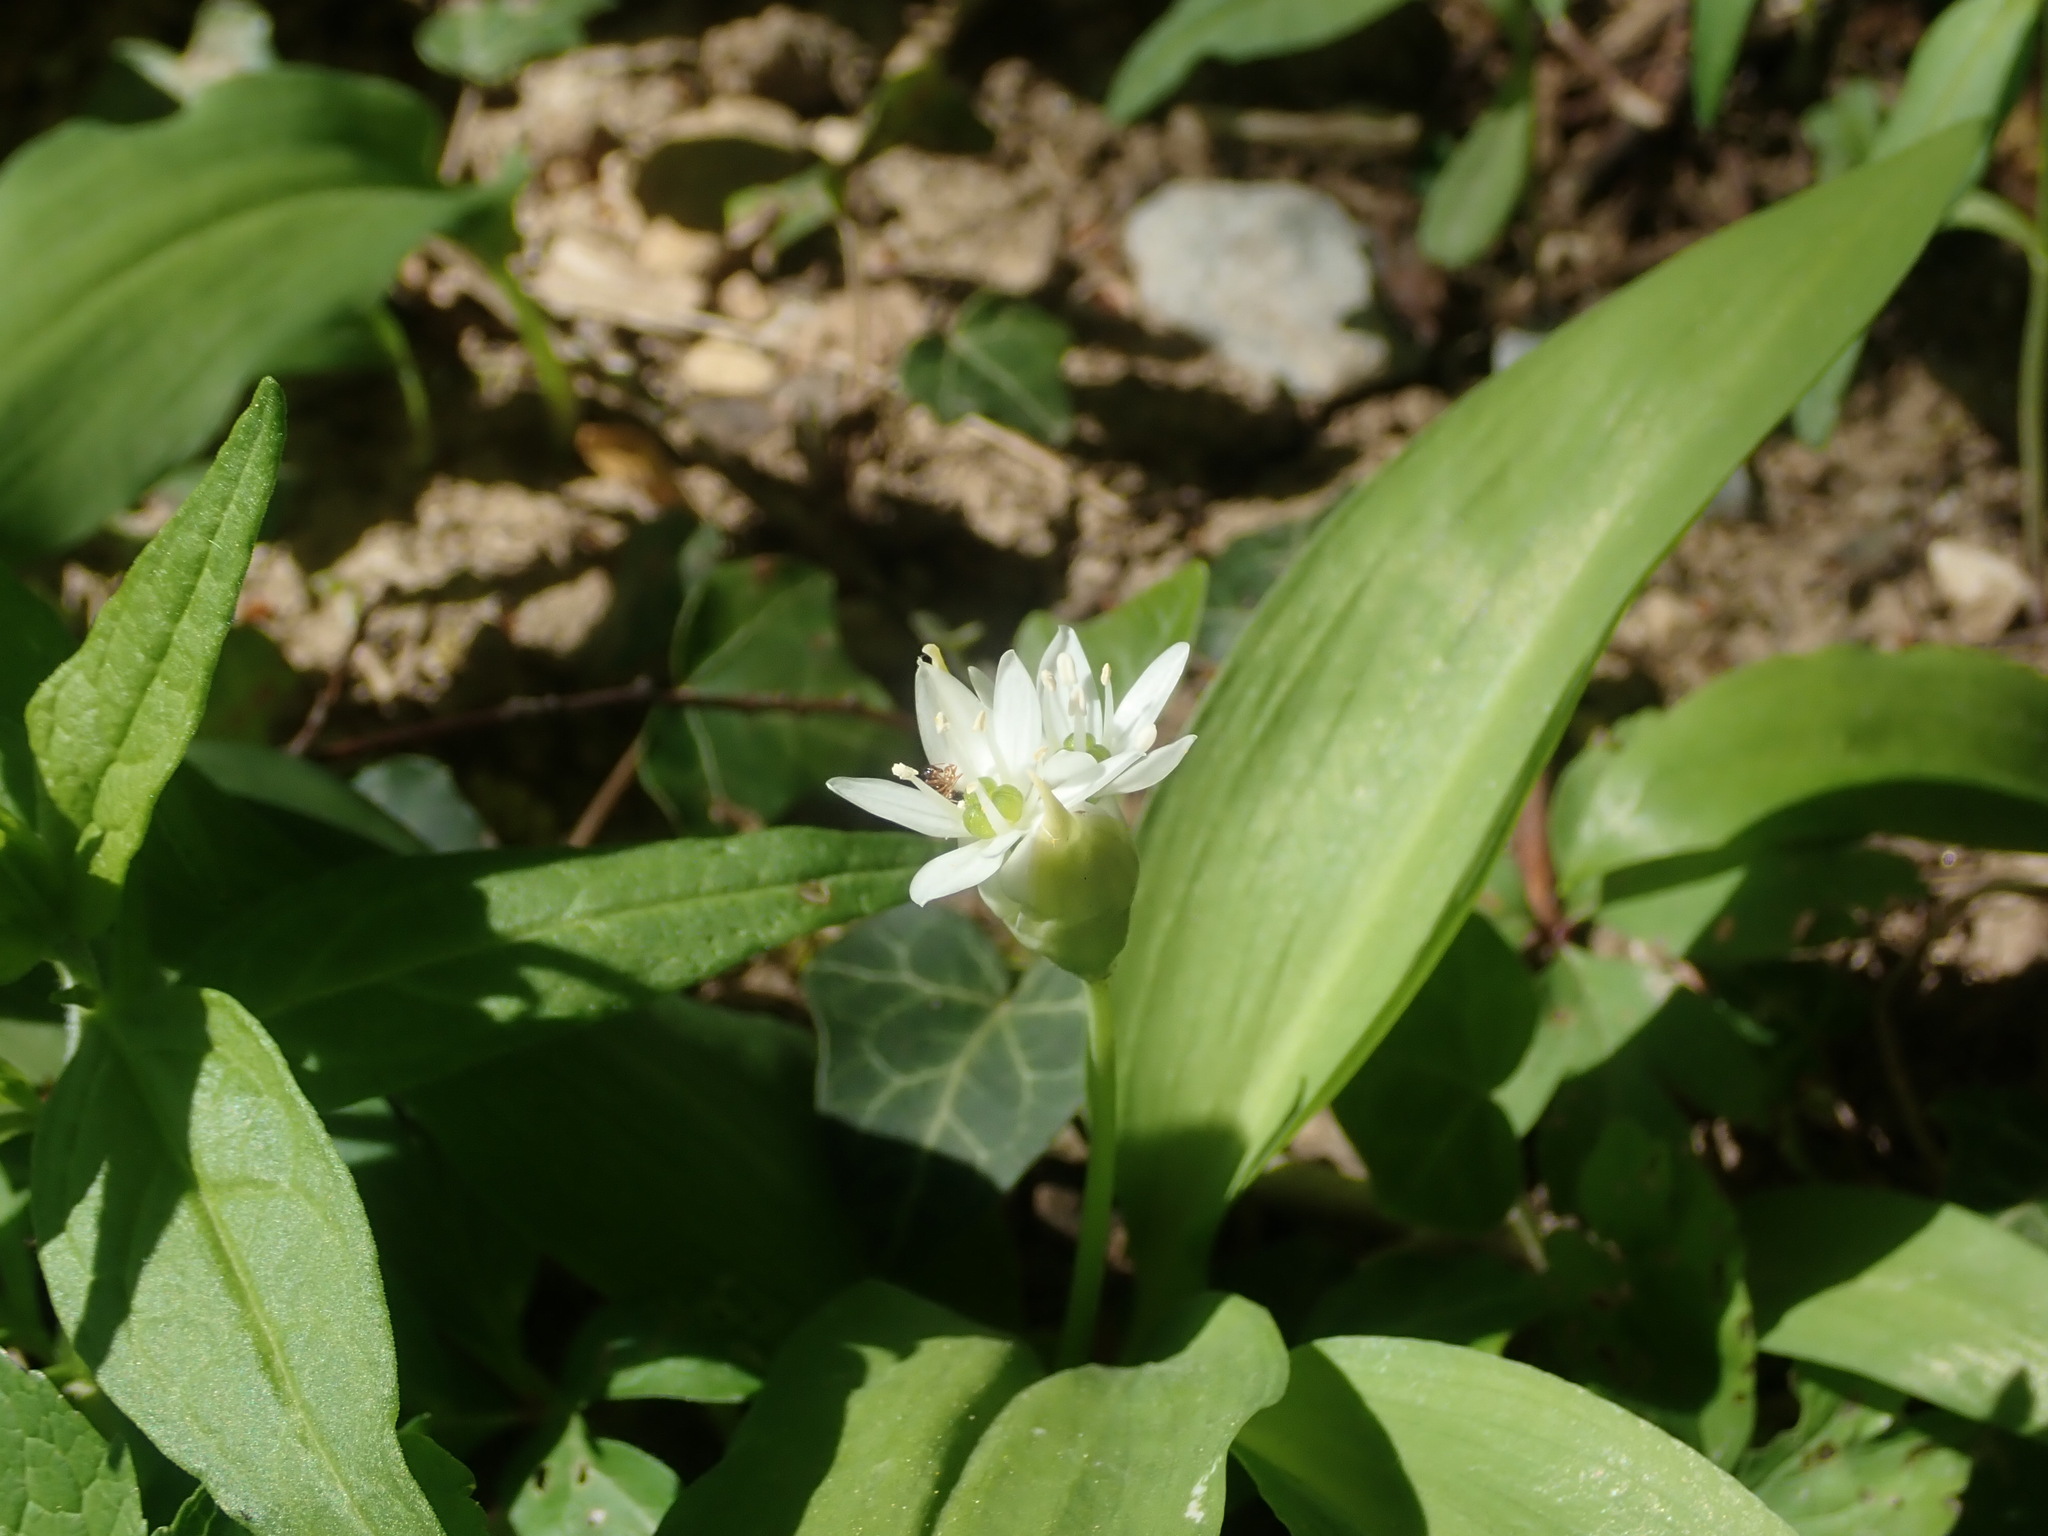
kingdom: Plantae
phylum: Tracheophyta
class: Liliopsida
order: Asparagales
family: Amaryllidaceae
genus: Allium
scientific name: Allium ursinum
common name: Ramsons
